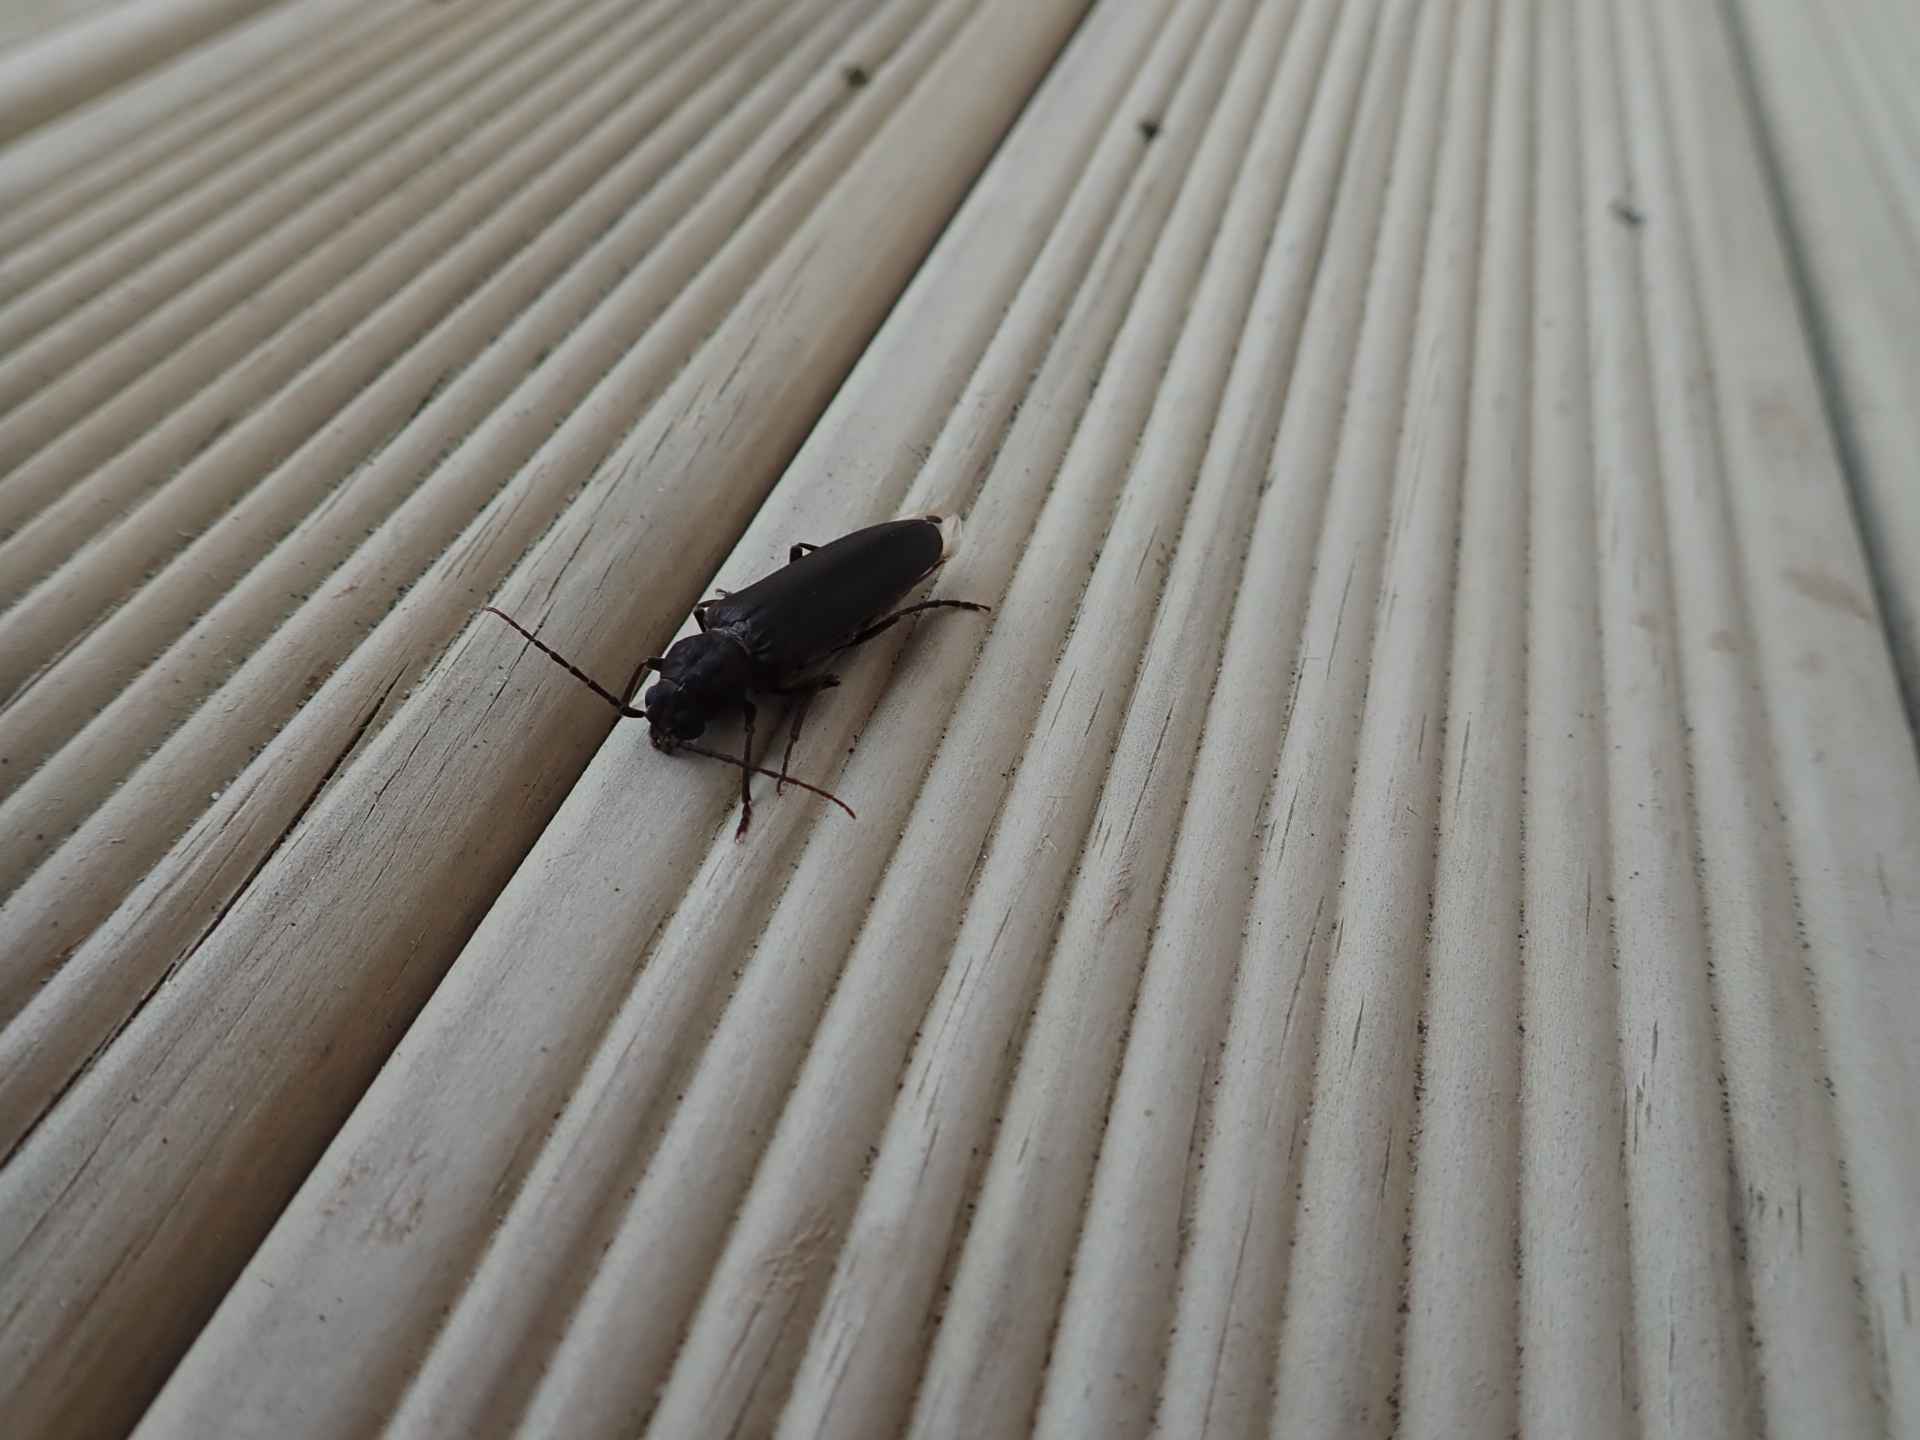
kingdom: Animalia
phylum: Arthropoda
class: Insecta
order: Coleoptera
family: Cerambycidae
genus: Arhopalus
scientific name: Arhopalus ferus
